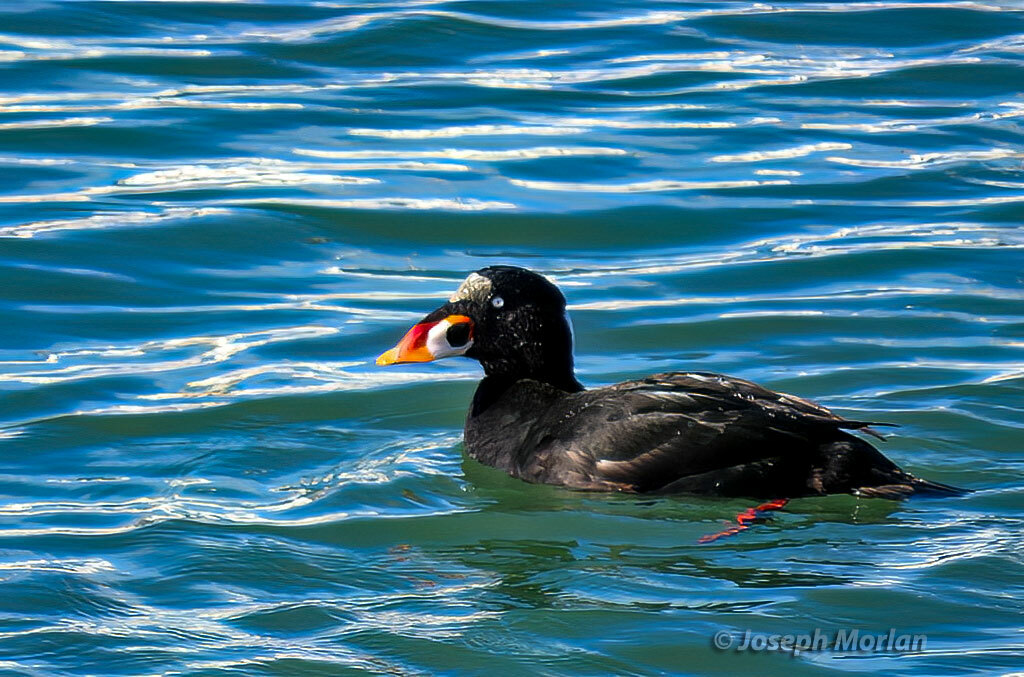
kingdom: Animalia
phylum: Chordata
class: Aves
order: Anseriformes
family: Anatidae
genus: Melanitta
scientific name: Melanitta perspicillata
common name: Surf scoter
